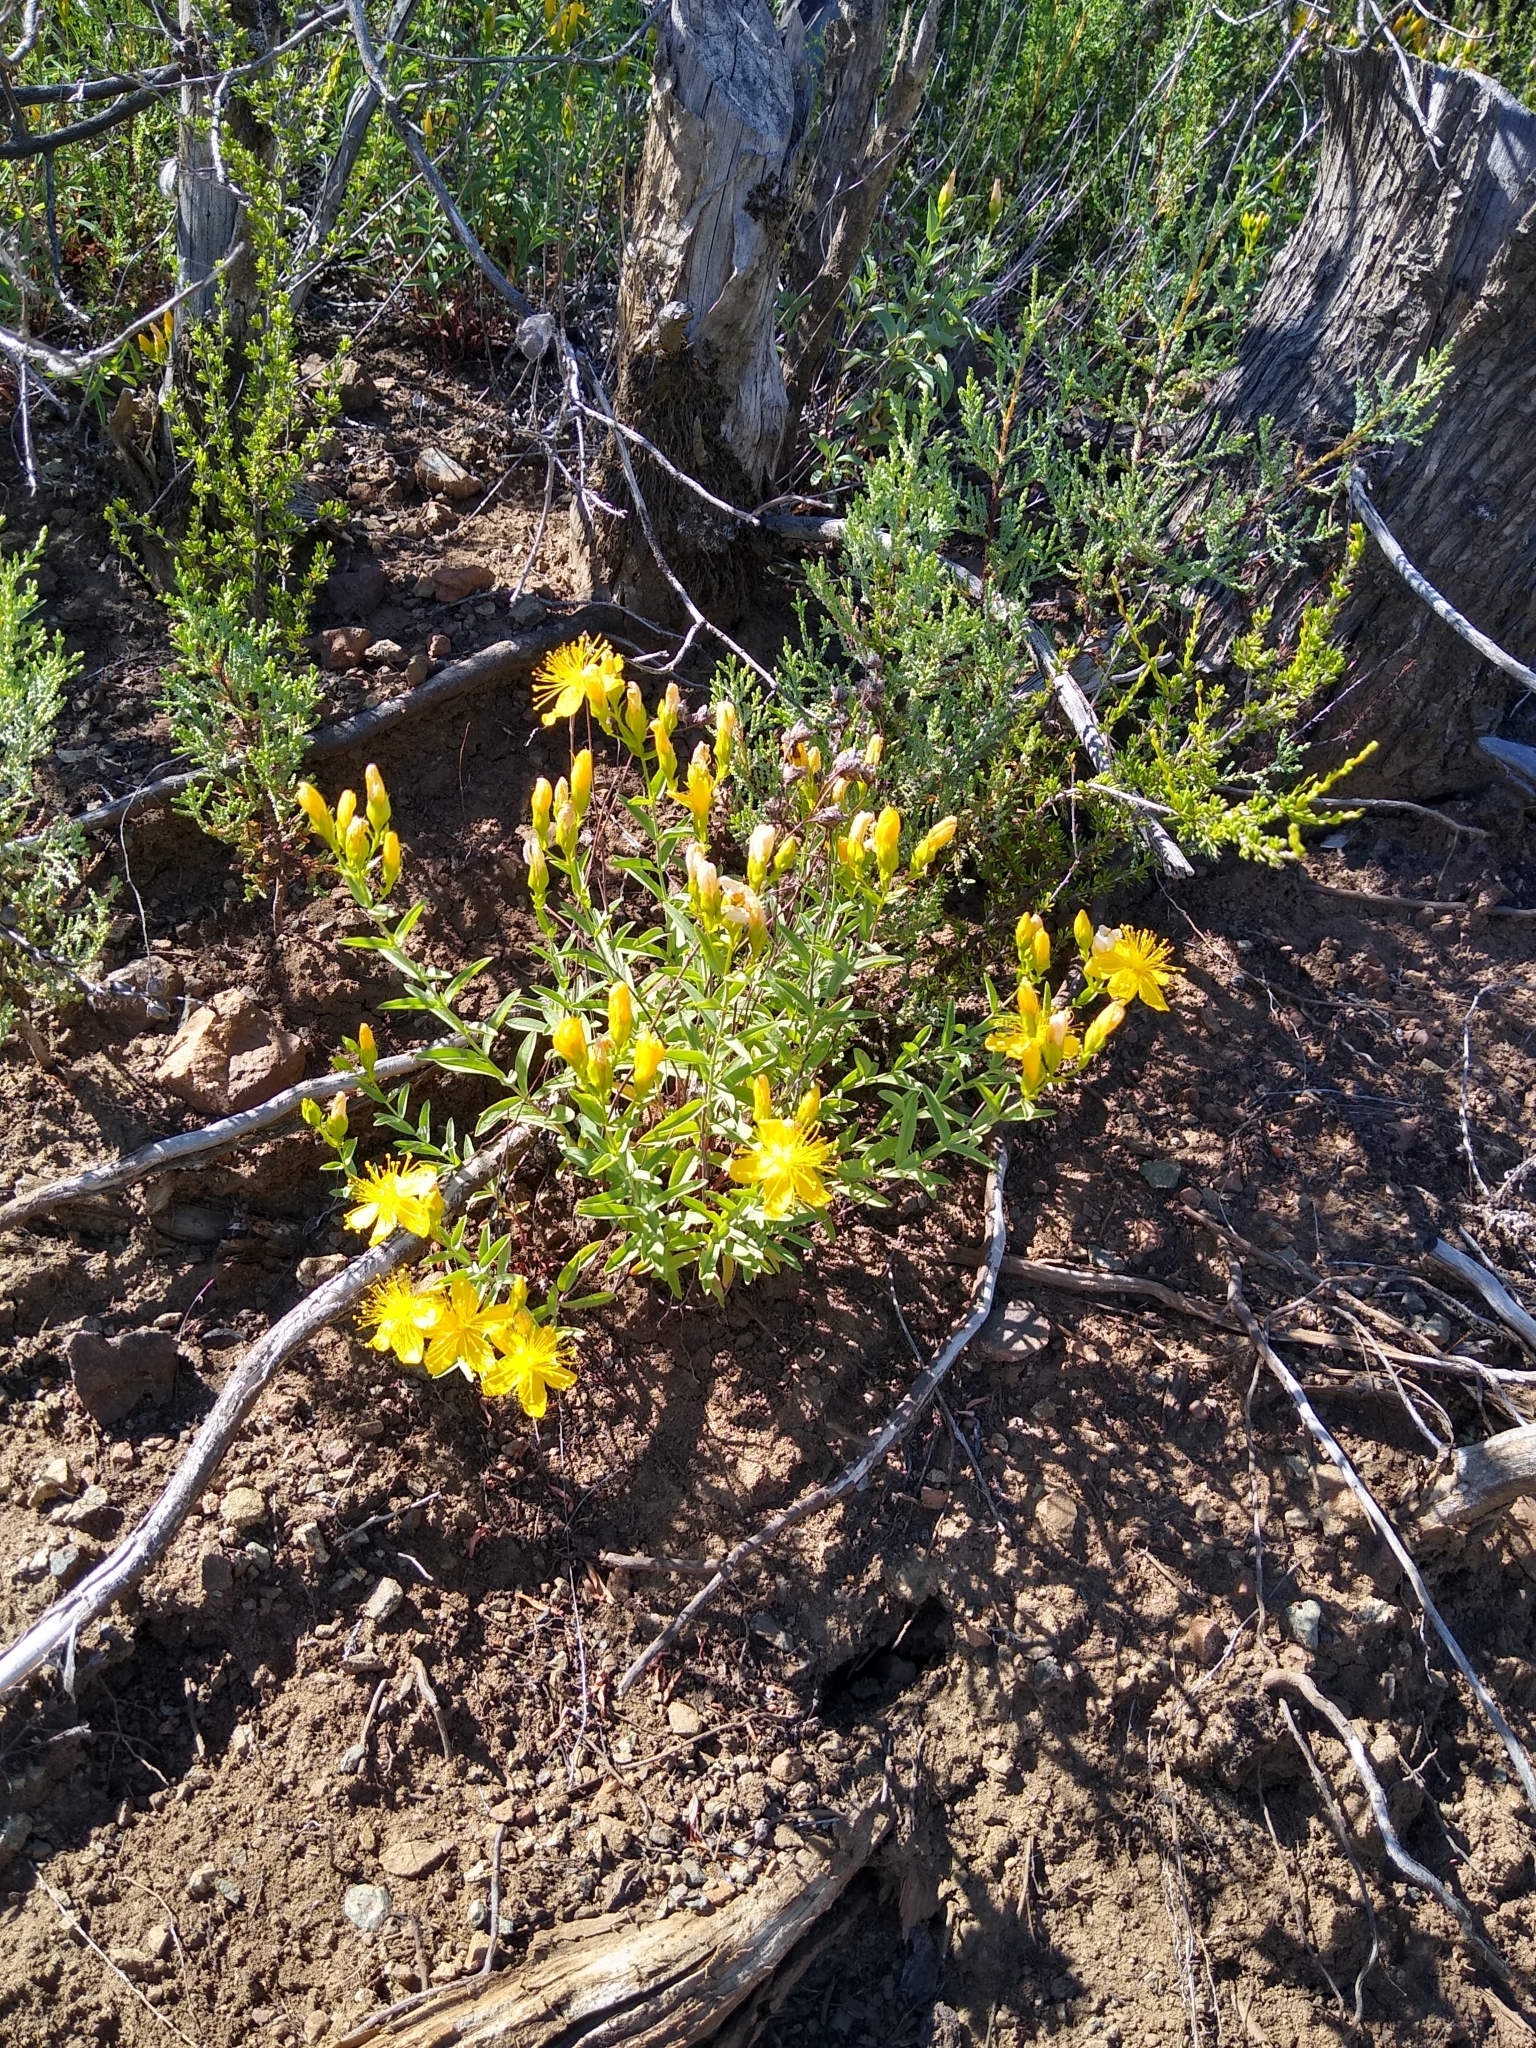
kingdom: Plantae
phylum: Tracheophyta
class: Magnoliopsida
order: Malpighiales
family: Hypericaceae
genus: Hypericum
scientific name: Hypericum concinnum
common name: Gold-wire
